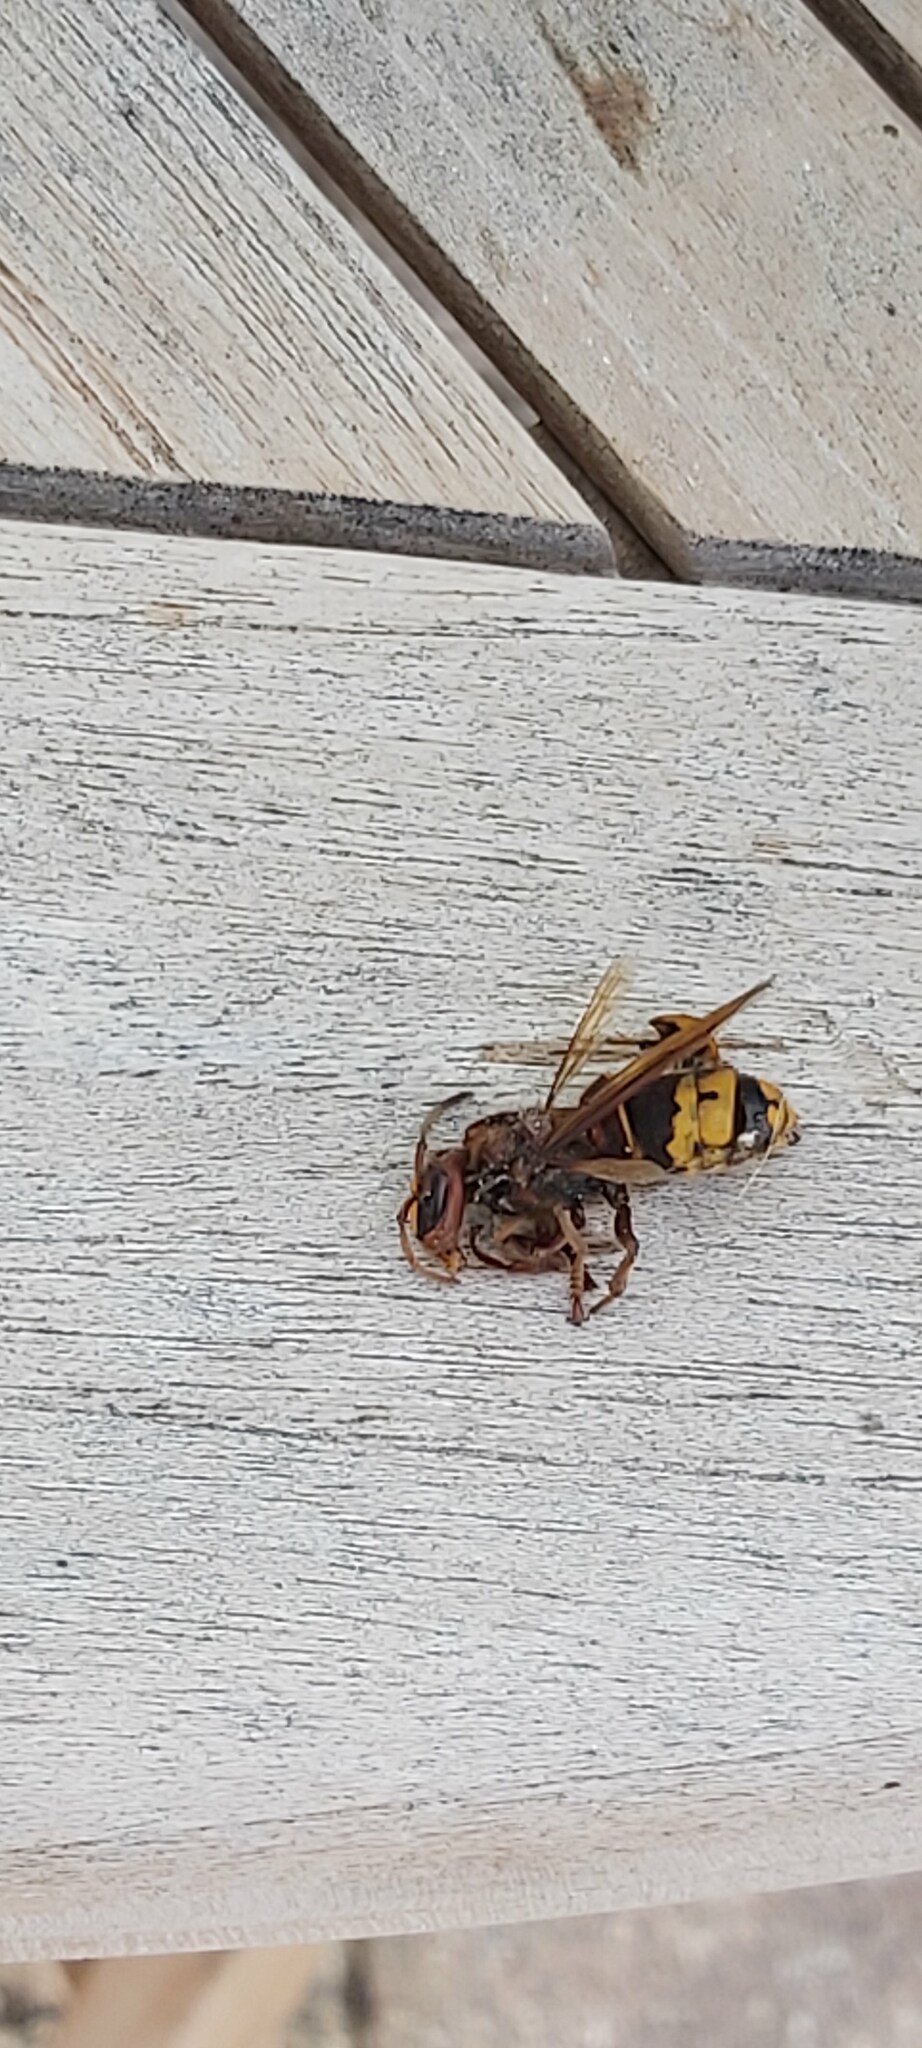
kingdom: Animalia
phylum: Arthropoda
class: Insecta
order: Hymenoptera
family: Vespidae
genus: Vespa
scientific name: Vespa crabro
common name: Hornet
